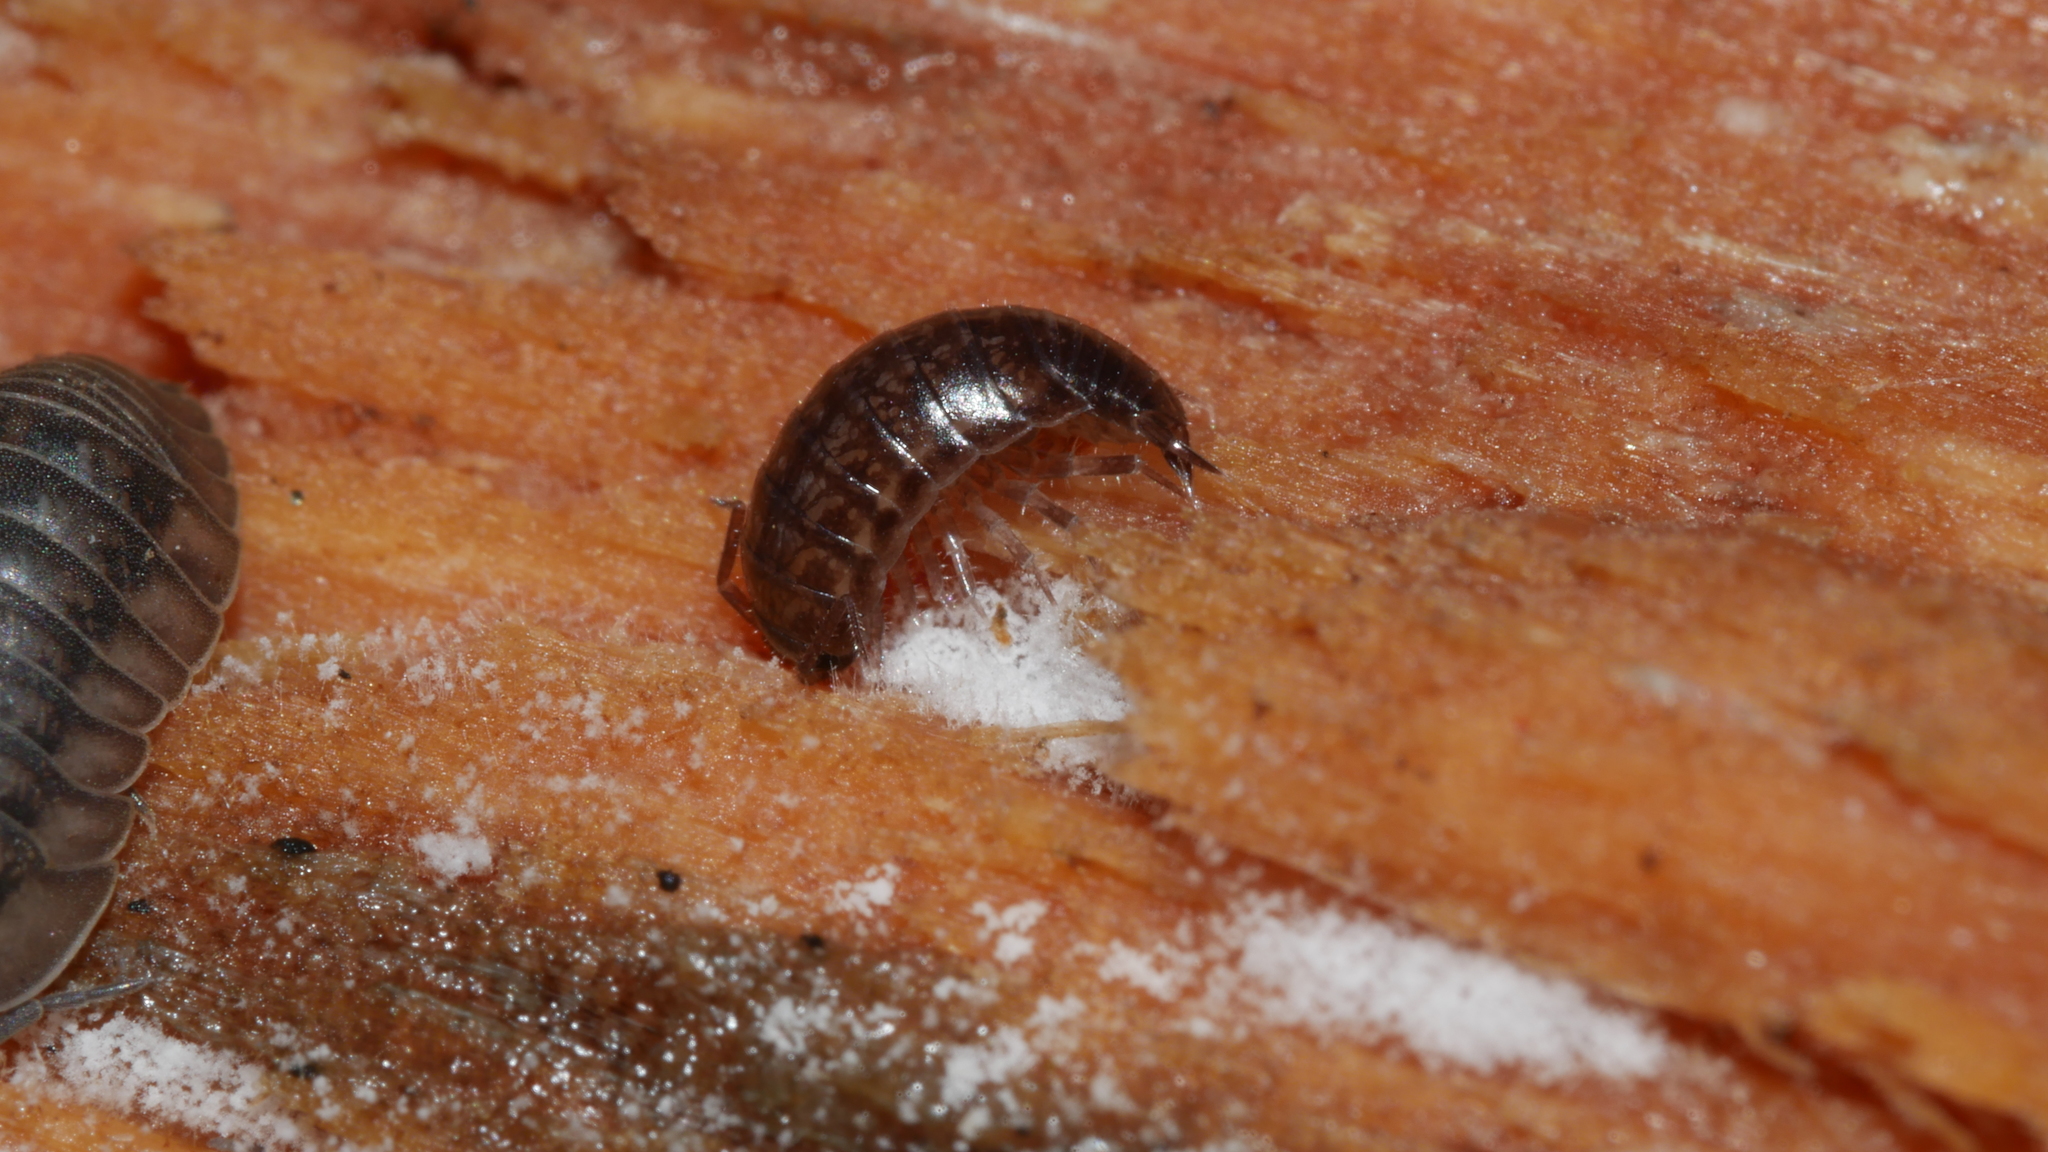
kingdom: Animalia
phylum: Arthropoda
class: Malacostraca
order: Isopoda
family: Philosciidae
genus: Chaetophiloscia
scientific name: Chaetophiloscia sicula
